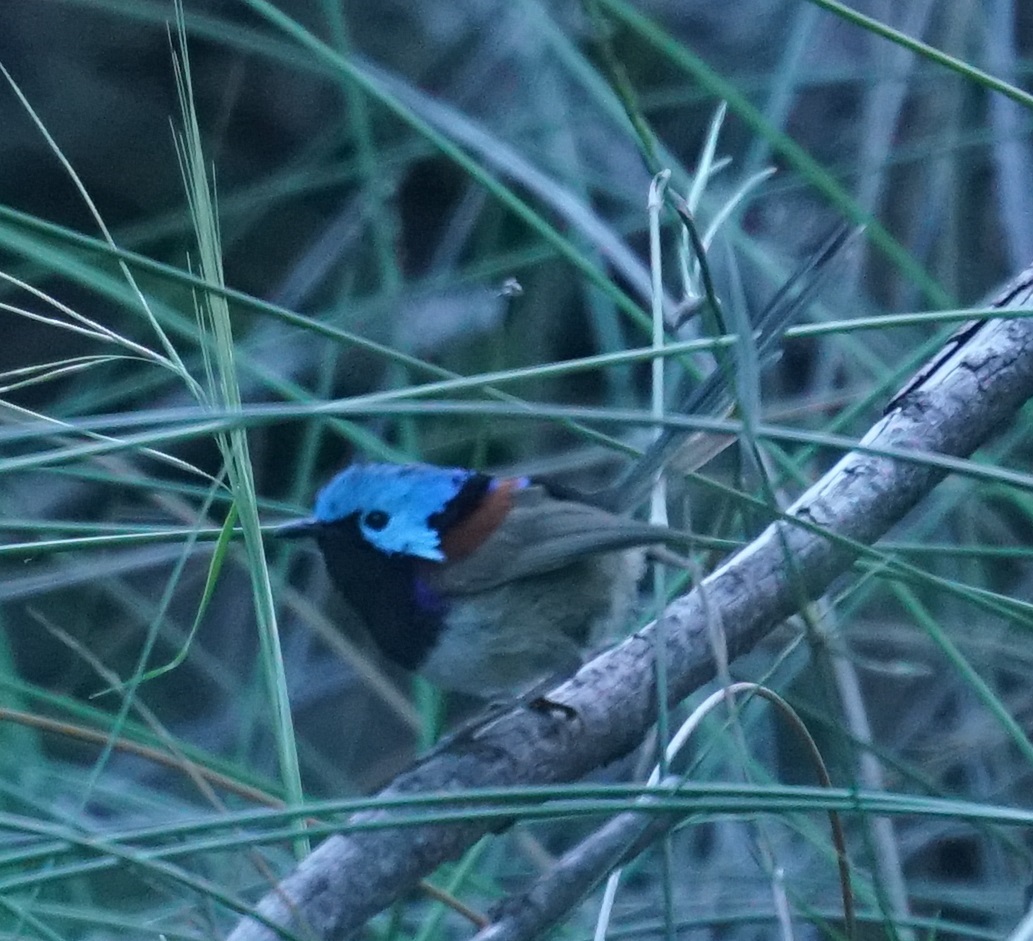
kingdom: Animalia
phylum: Chordata
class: Aves
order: Passeriformes
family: Maluridae
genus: Malurus
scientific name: Malurus lamberti
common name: Variegated fairywren
